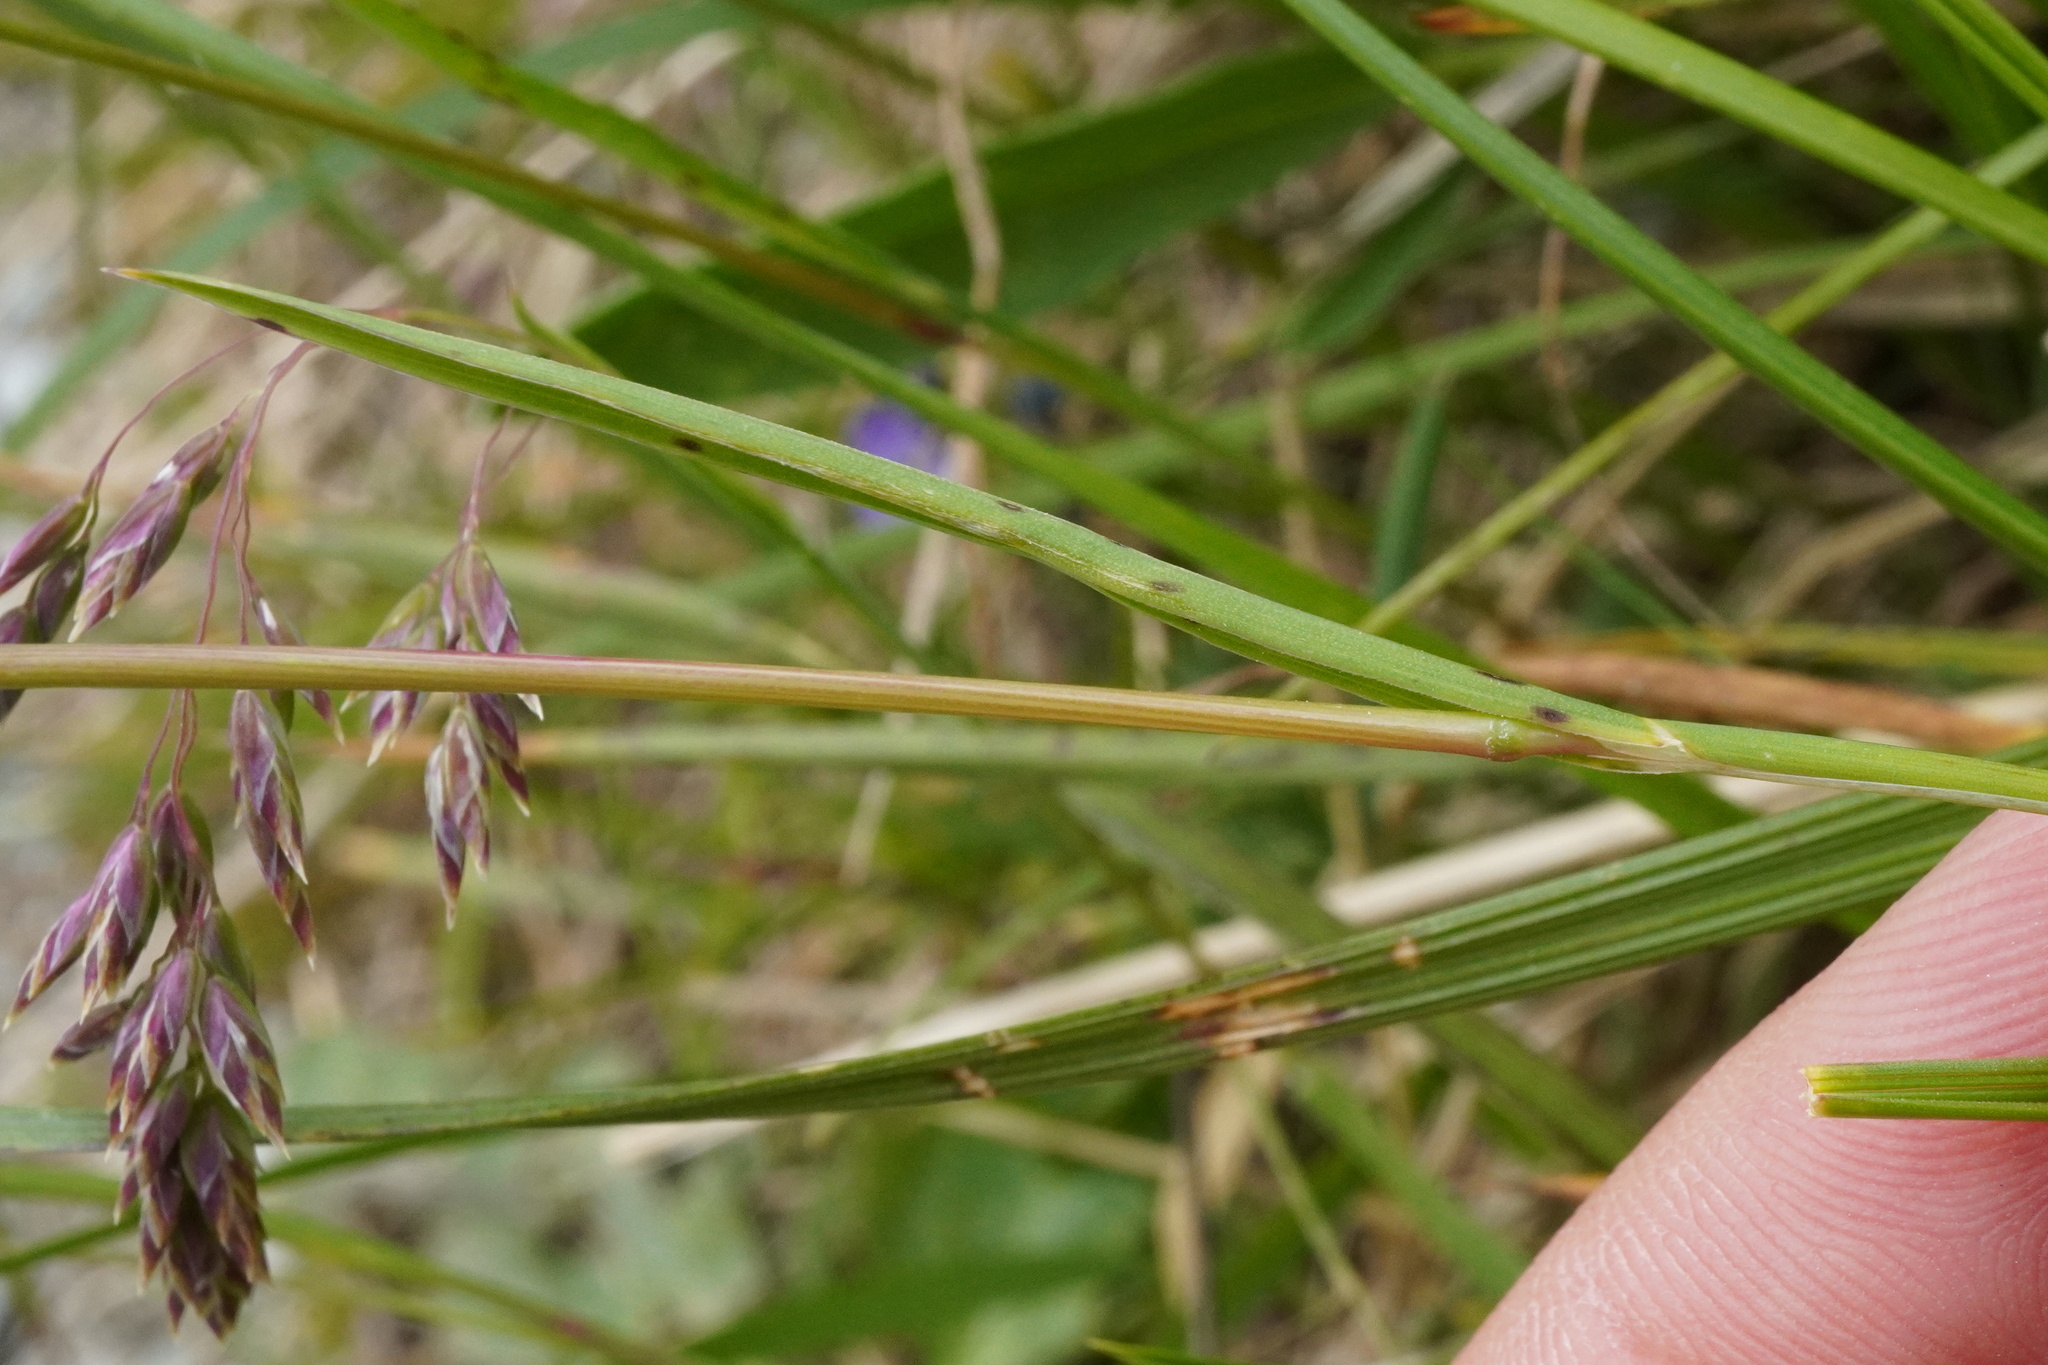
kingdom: Plantae
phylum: Tracheophyta
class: Liliopsida
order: Poales
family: Poaceae
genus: Deschampsia
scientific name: Deschampsia cespitosa
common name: Tufted hair-grass
